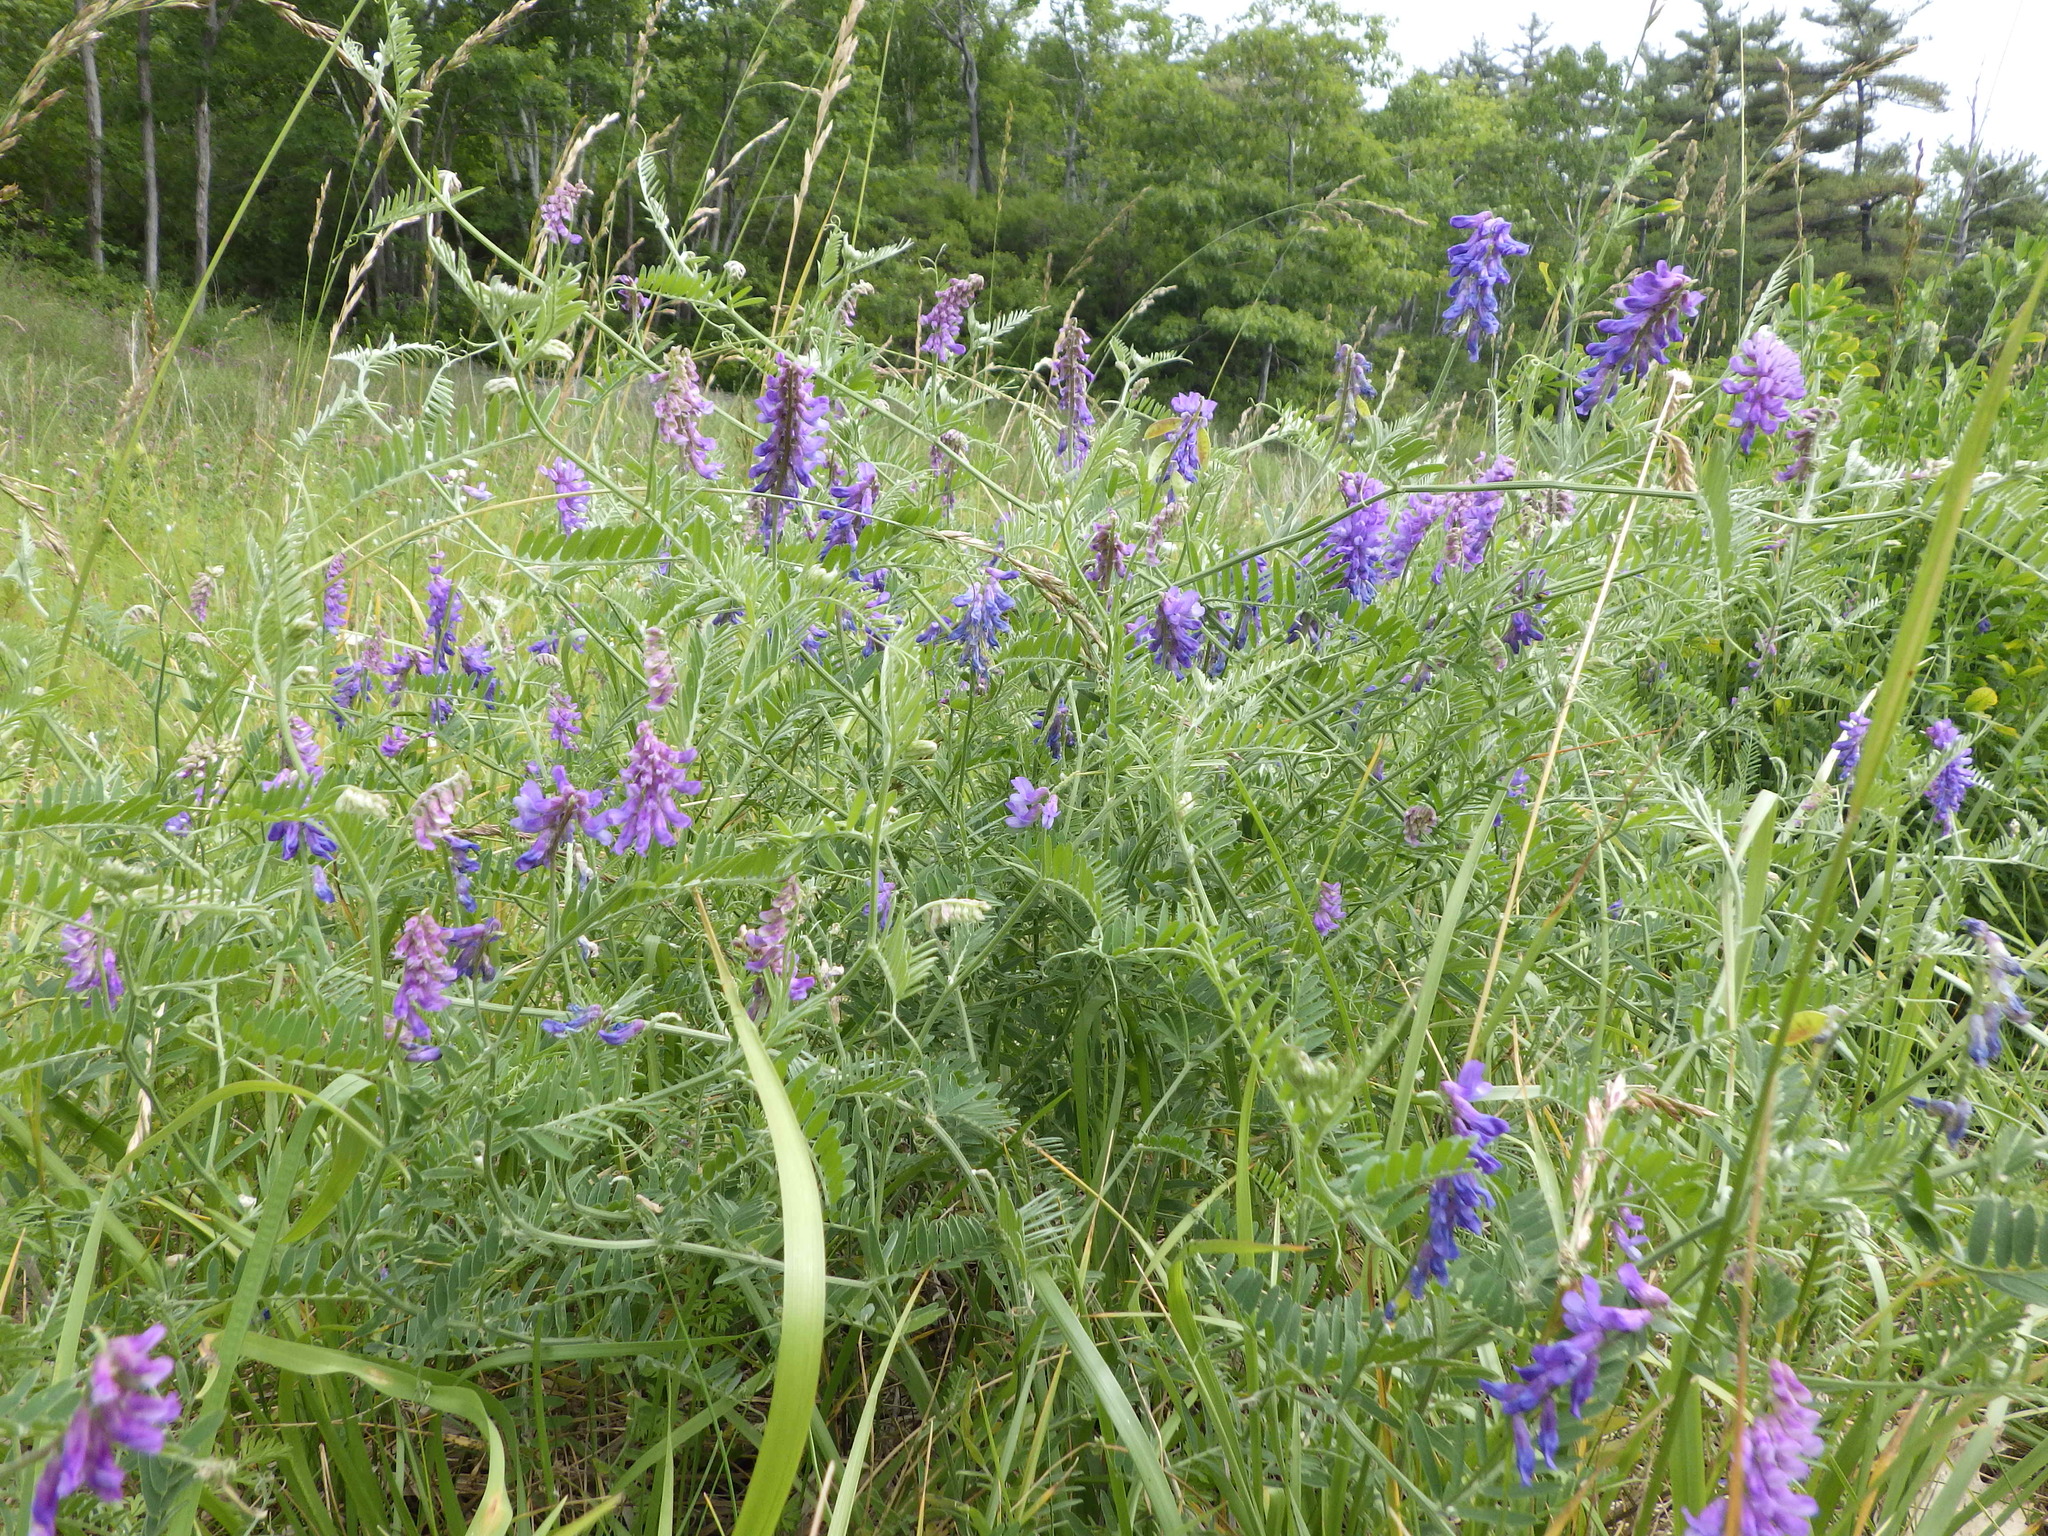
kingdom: Plantae
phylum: Tracheophyta
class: Magnoliopsida
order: Fabales
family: Fabaceae
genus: Vicia
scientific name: Vicia cracca
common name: Bird vetch
